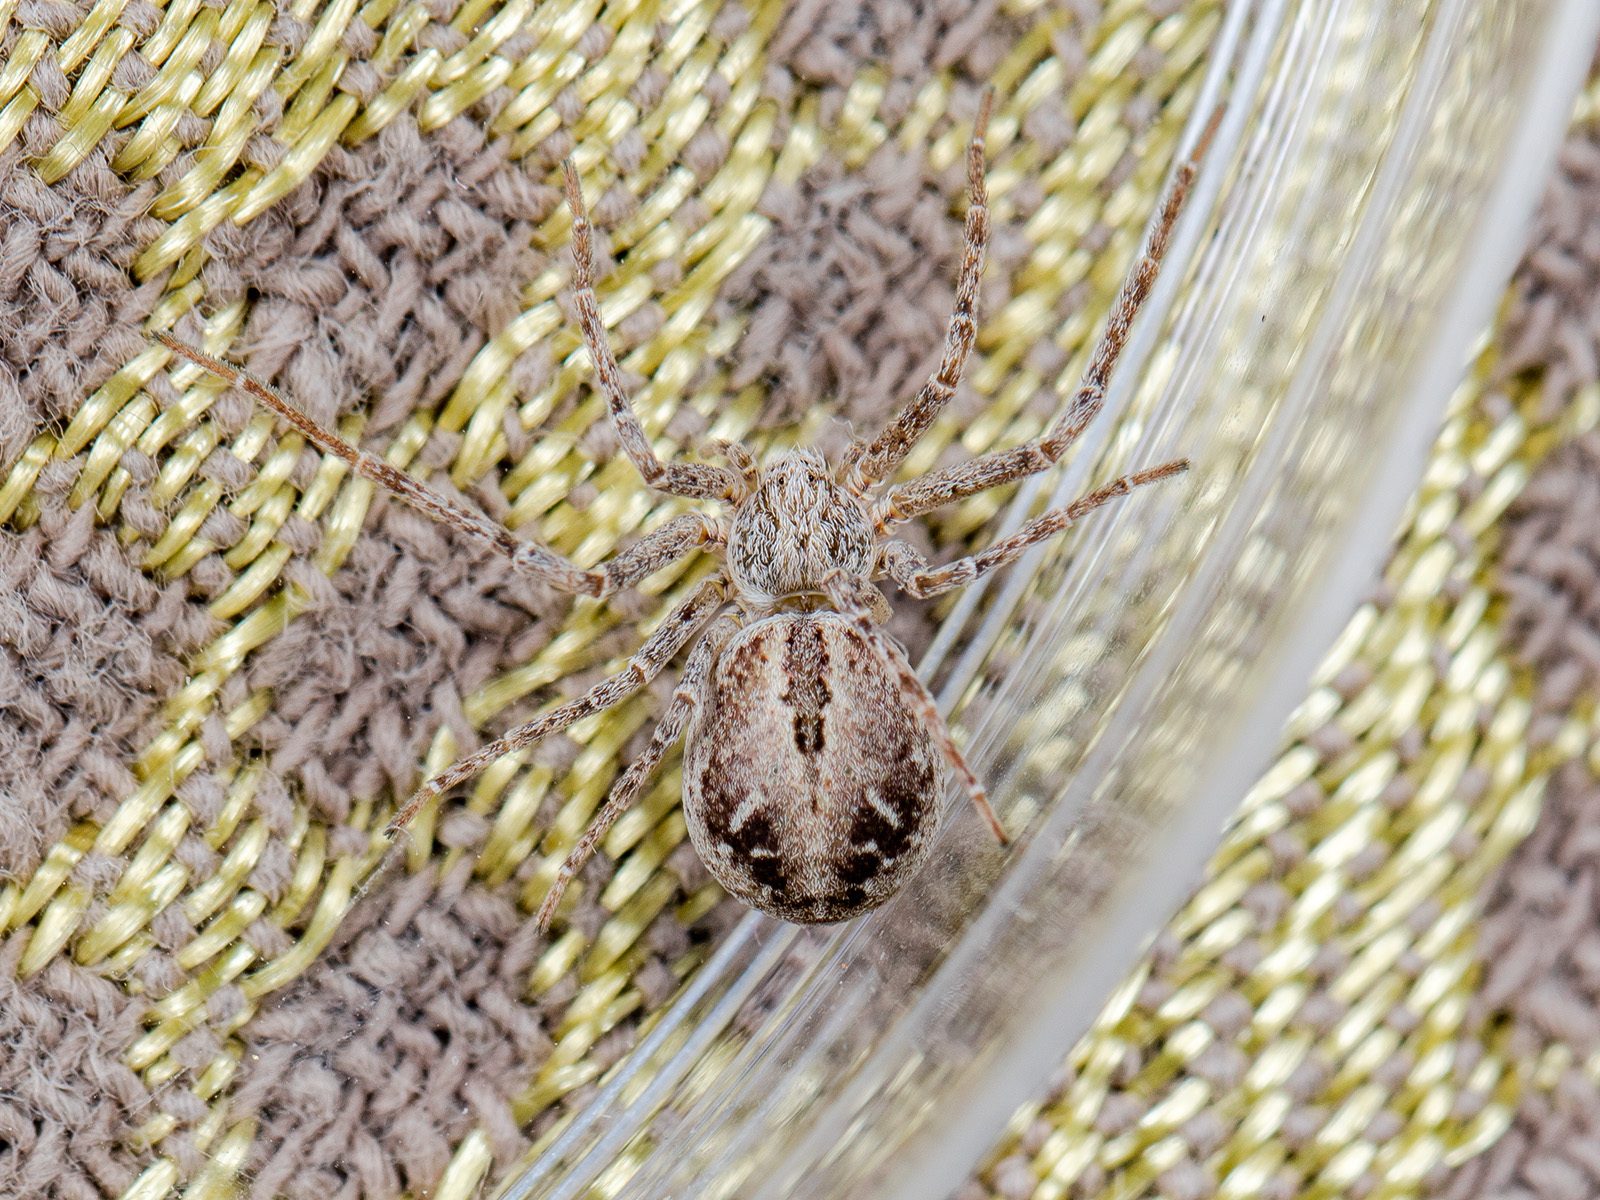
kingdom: Animalia
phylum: Arthropoda
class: Arachnida
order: Araneae
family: Philodromidae
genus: Rhysodromus
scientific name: Rhysodromus fallax
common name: Sand running-spider
